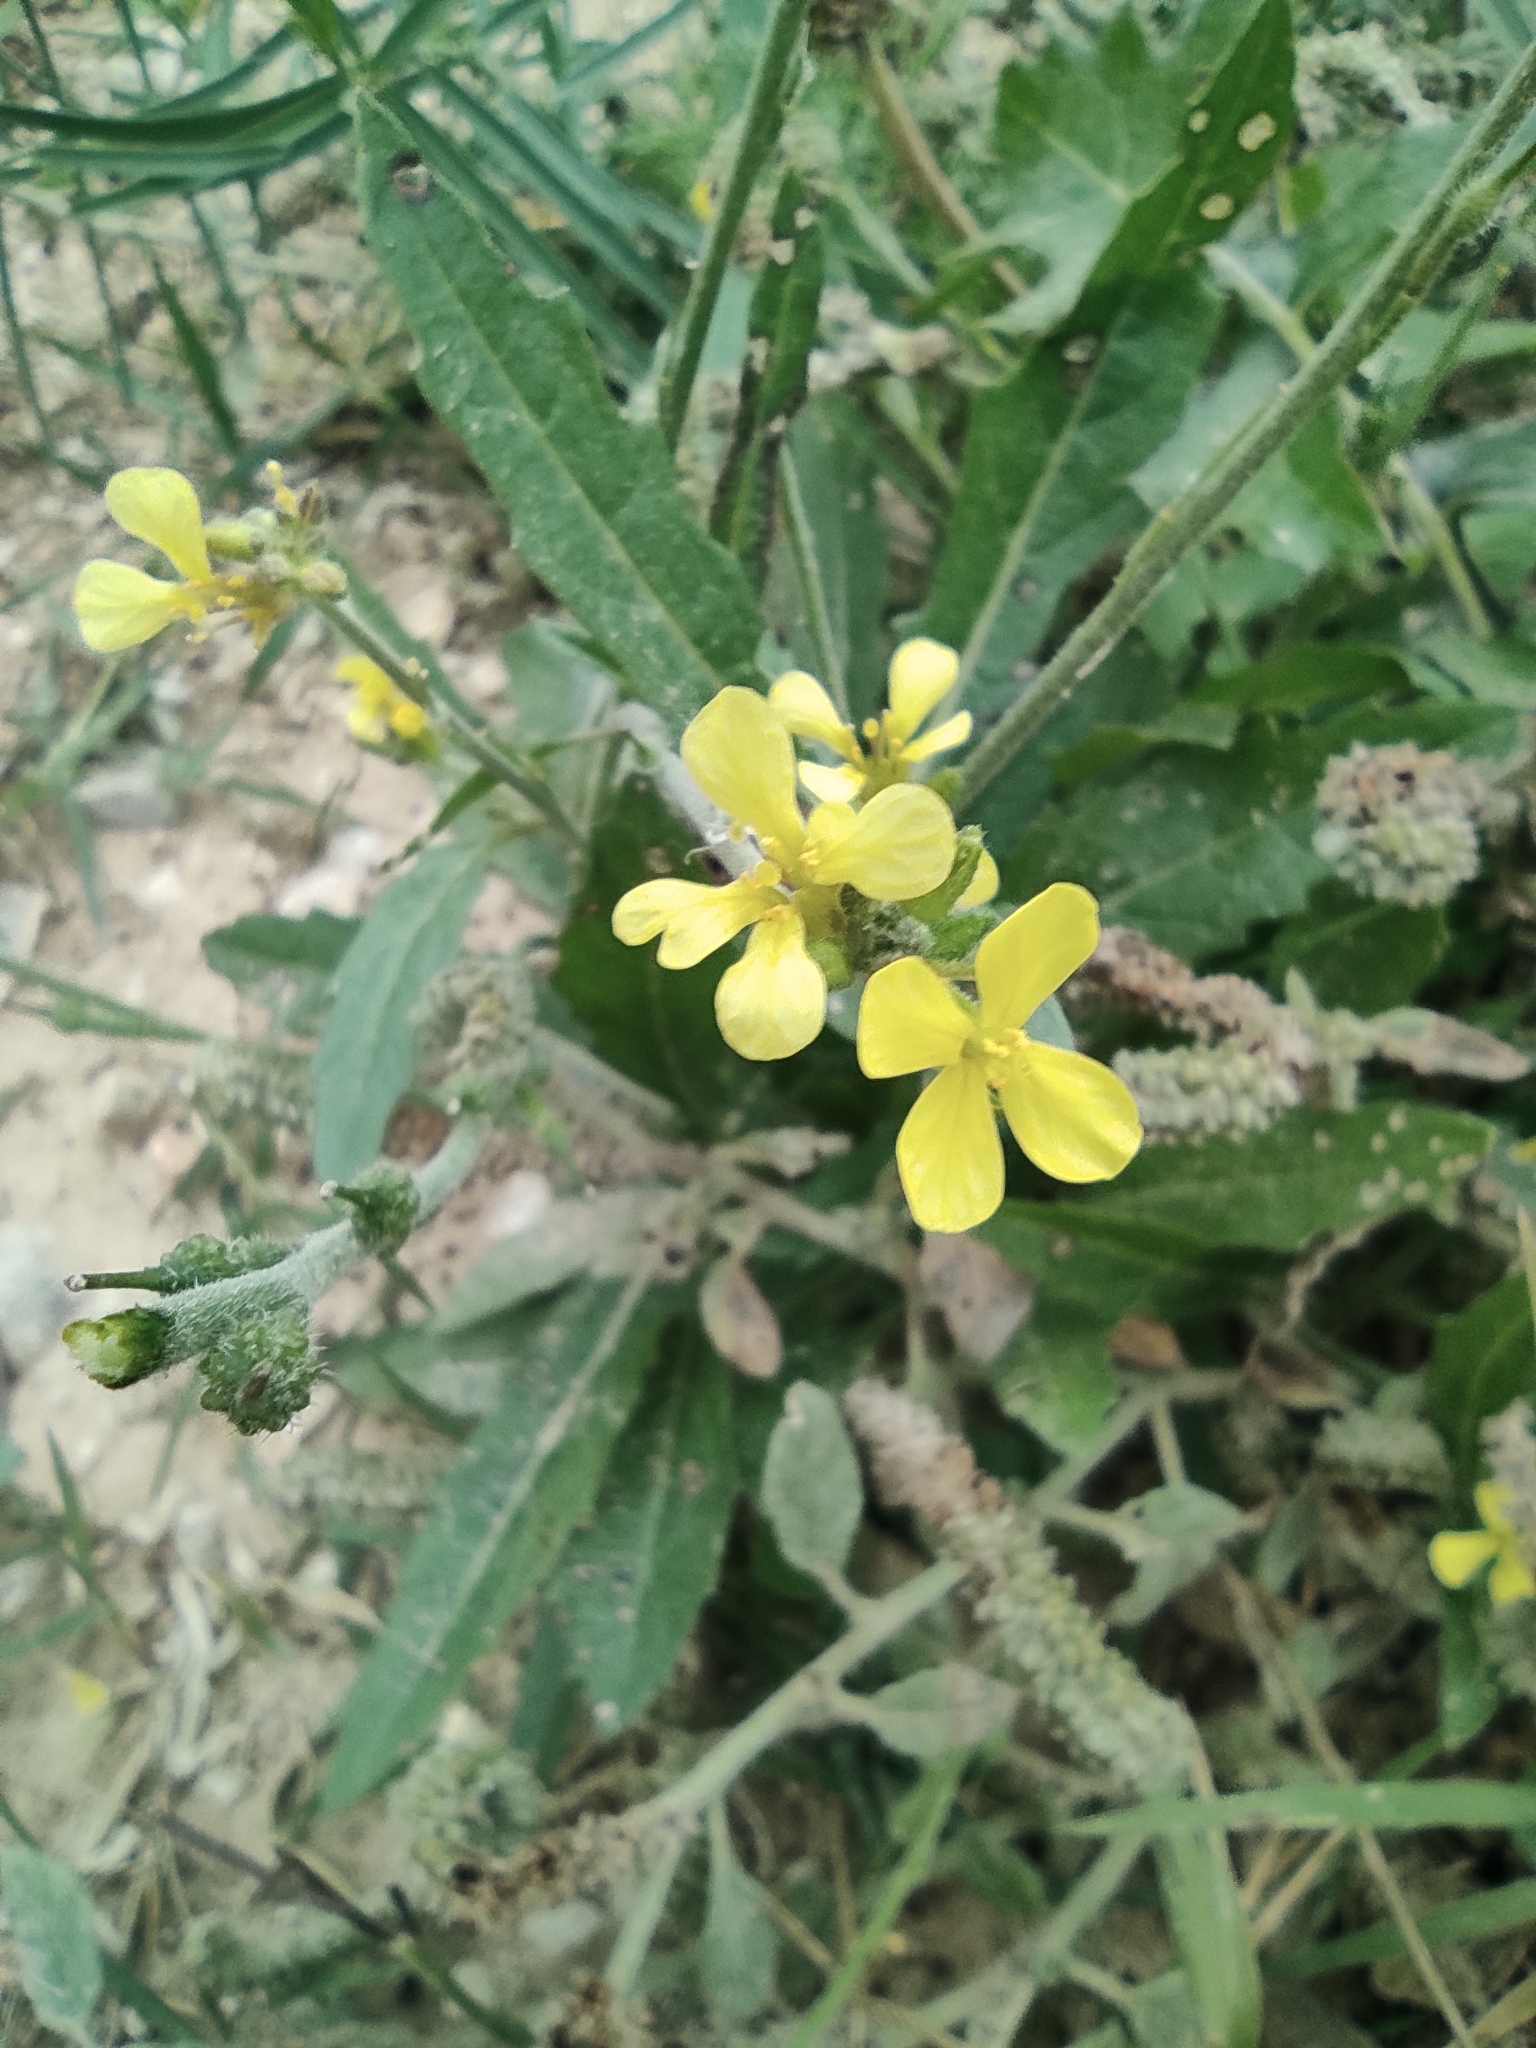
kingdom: Plantae
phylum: Tracheophyta
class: Magnoliopsida
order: Brassicales
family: Brassicaceae
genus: Rapistrum
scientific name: Rapistrum rugosum
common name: Annual bastardcabbage
